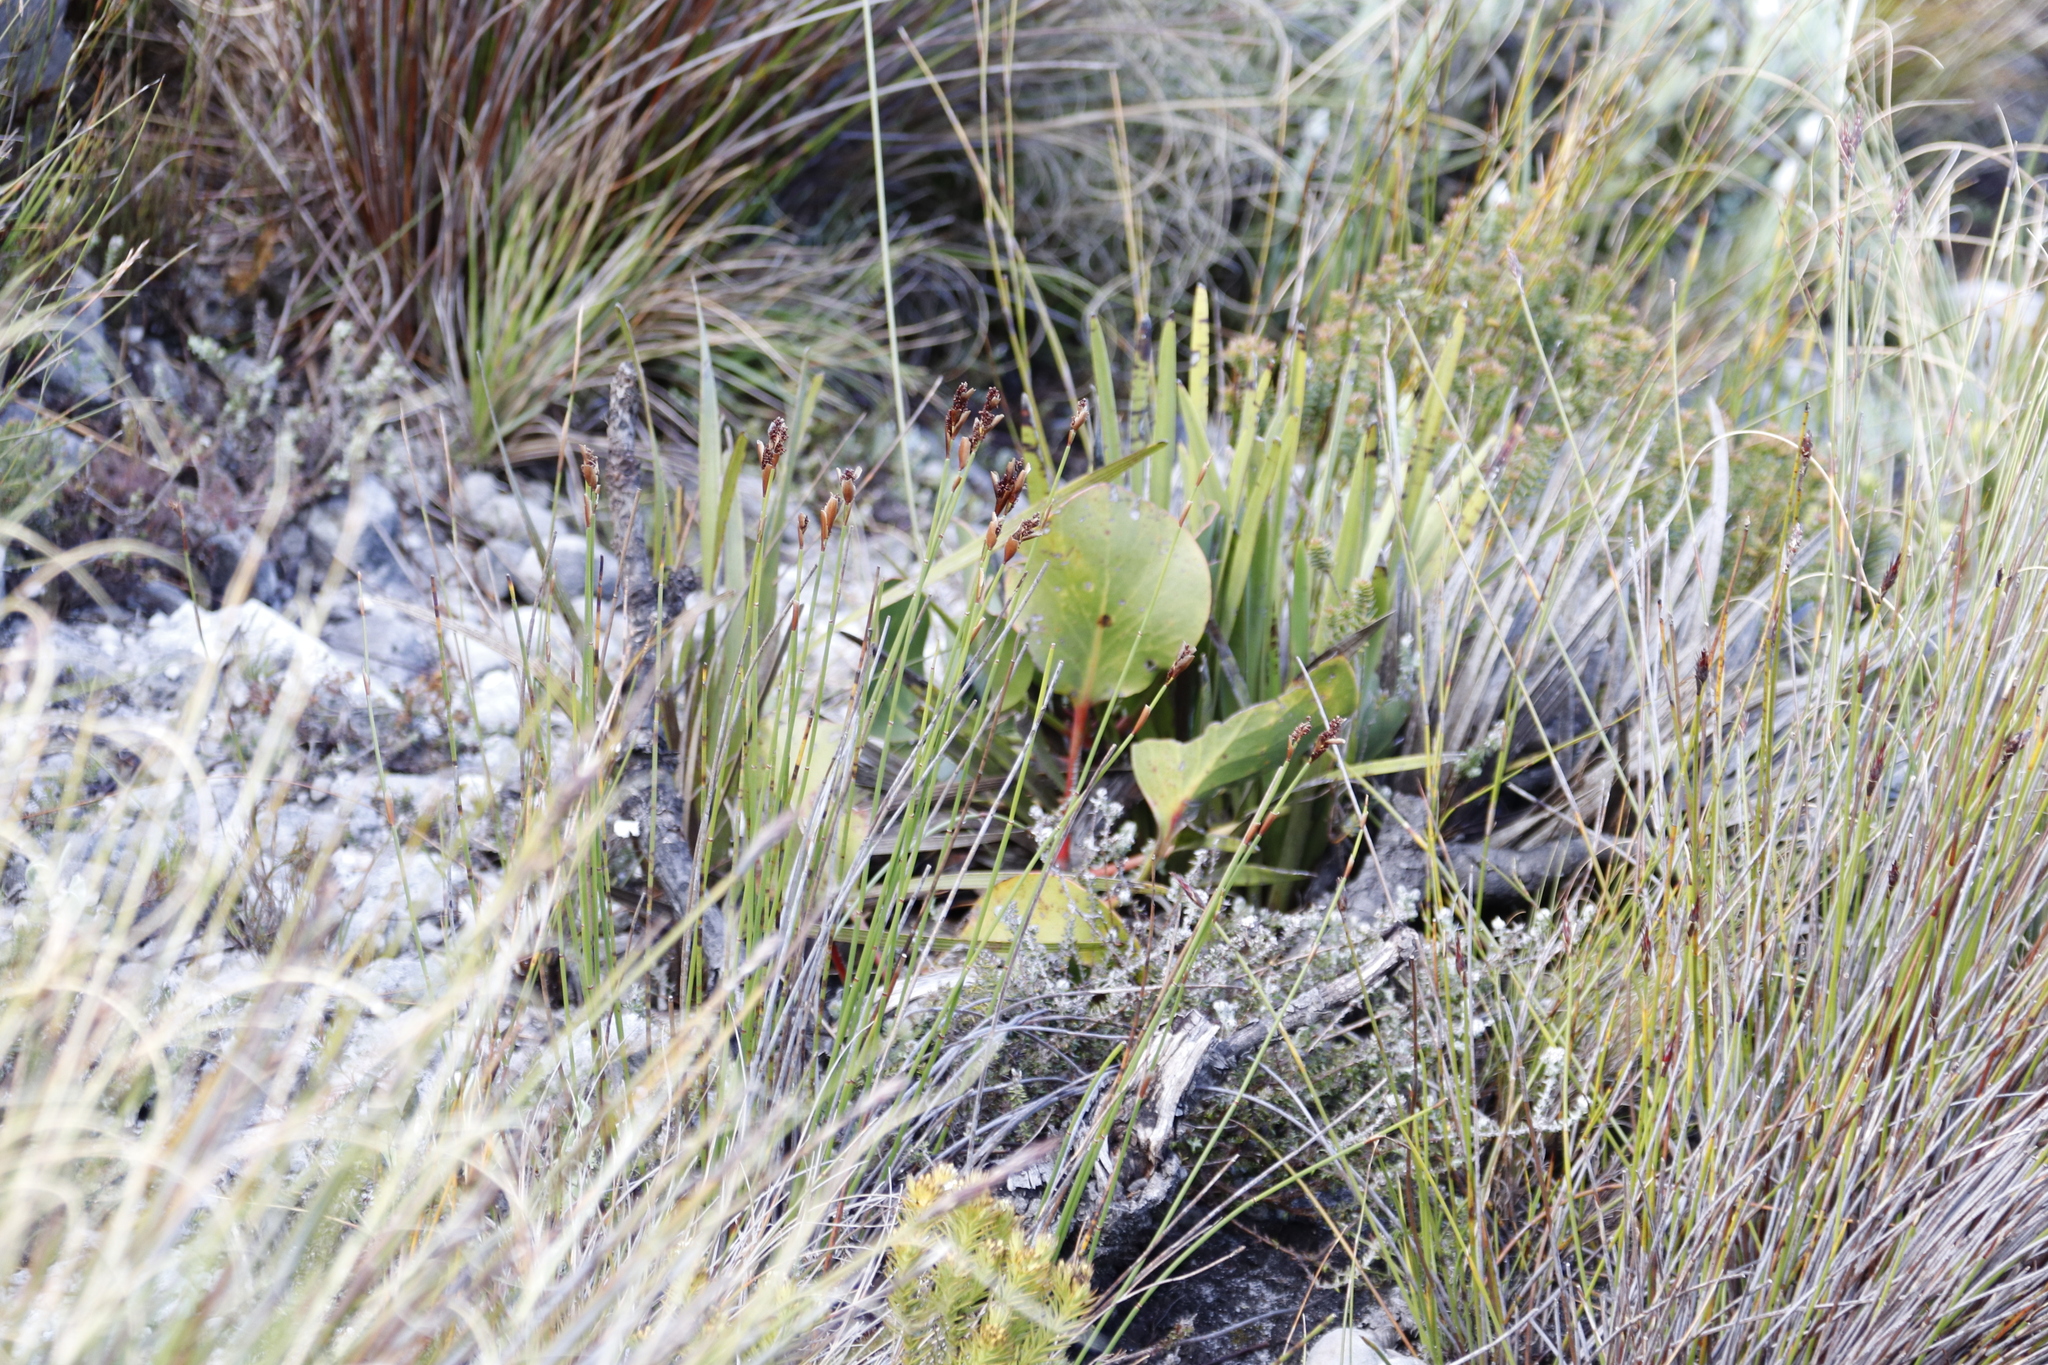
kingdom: Plantae
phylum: Tracheophyta
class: Magnoliopsida
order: Proteales
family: Proteaceae
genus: Protea
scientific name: Protea cynaroides
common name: King protea
